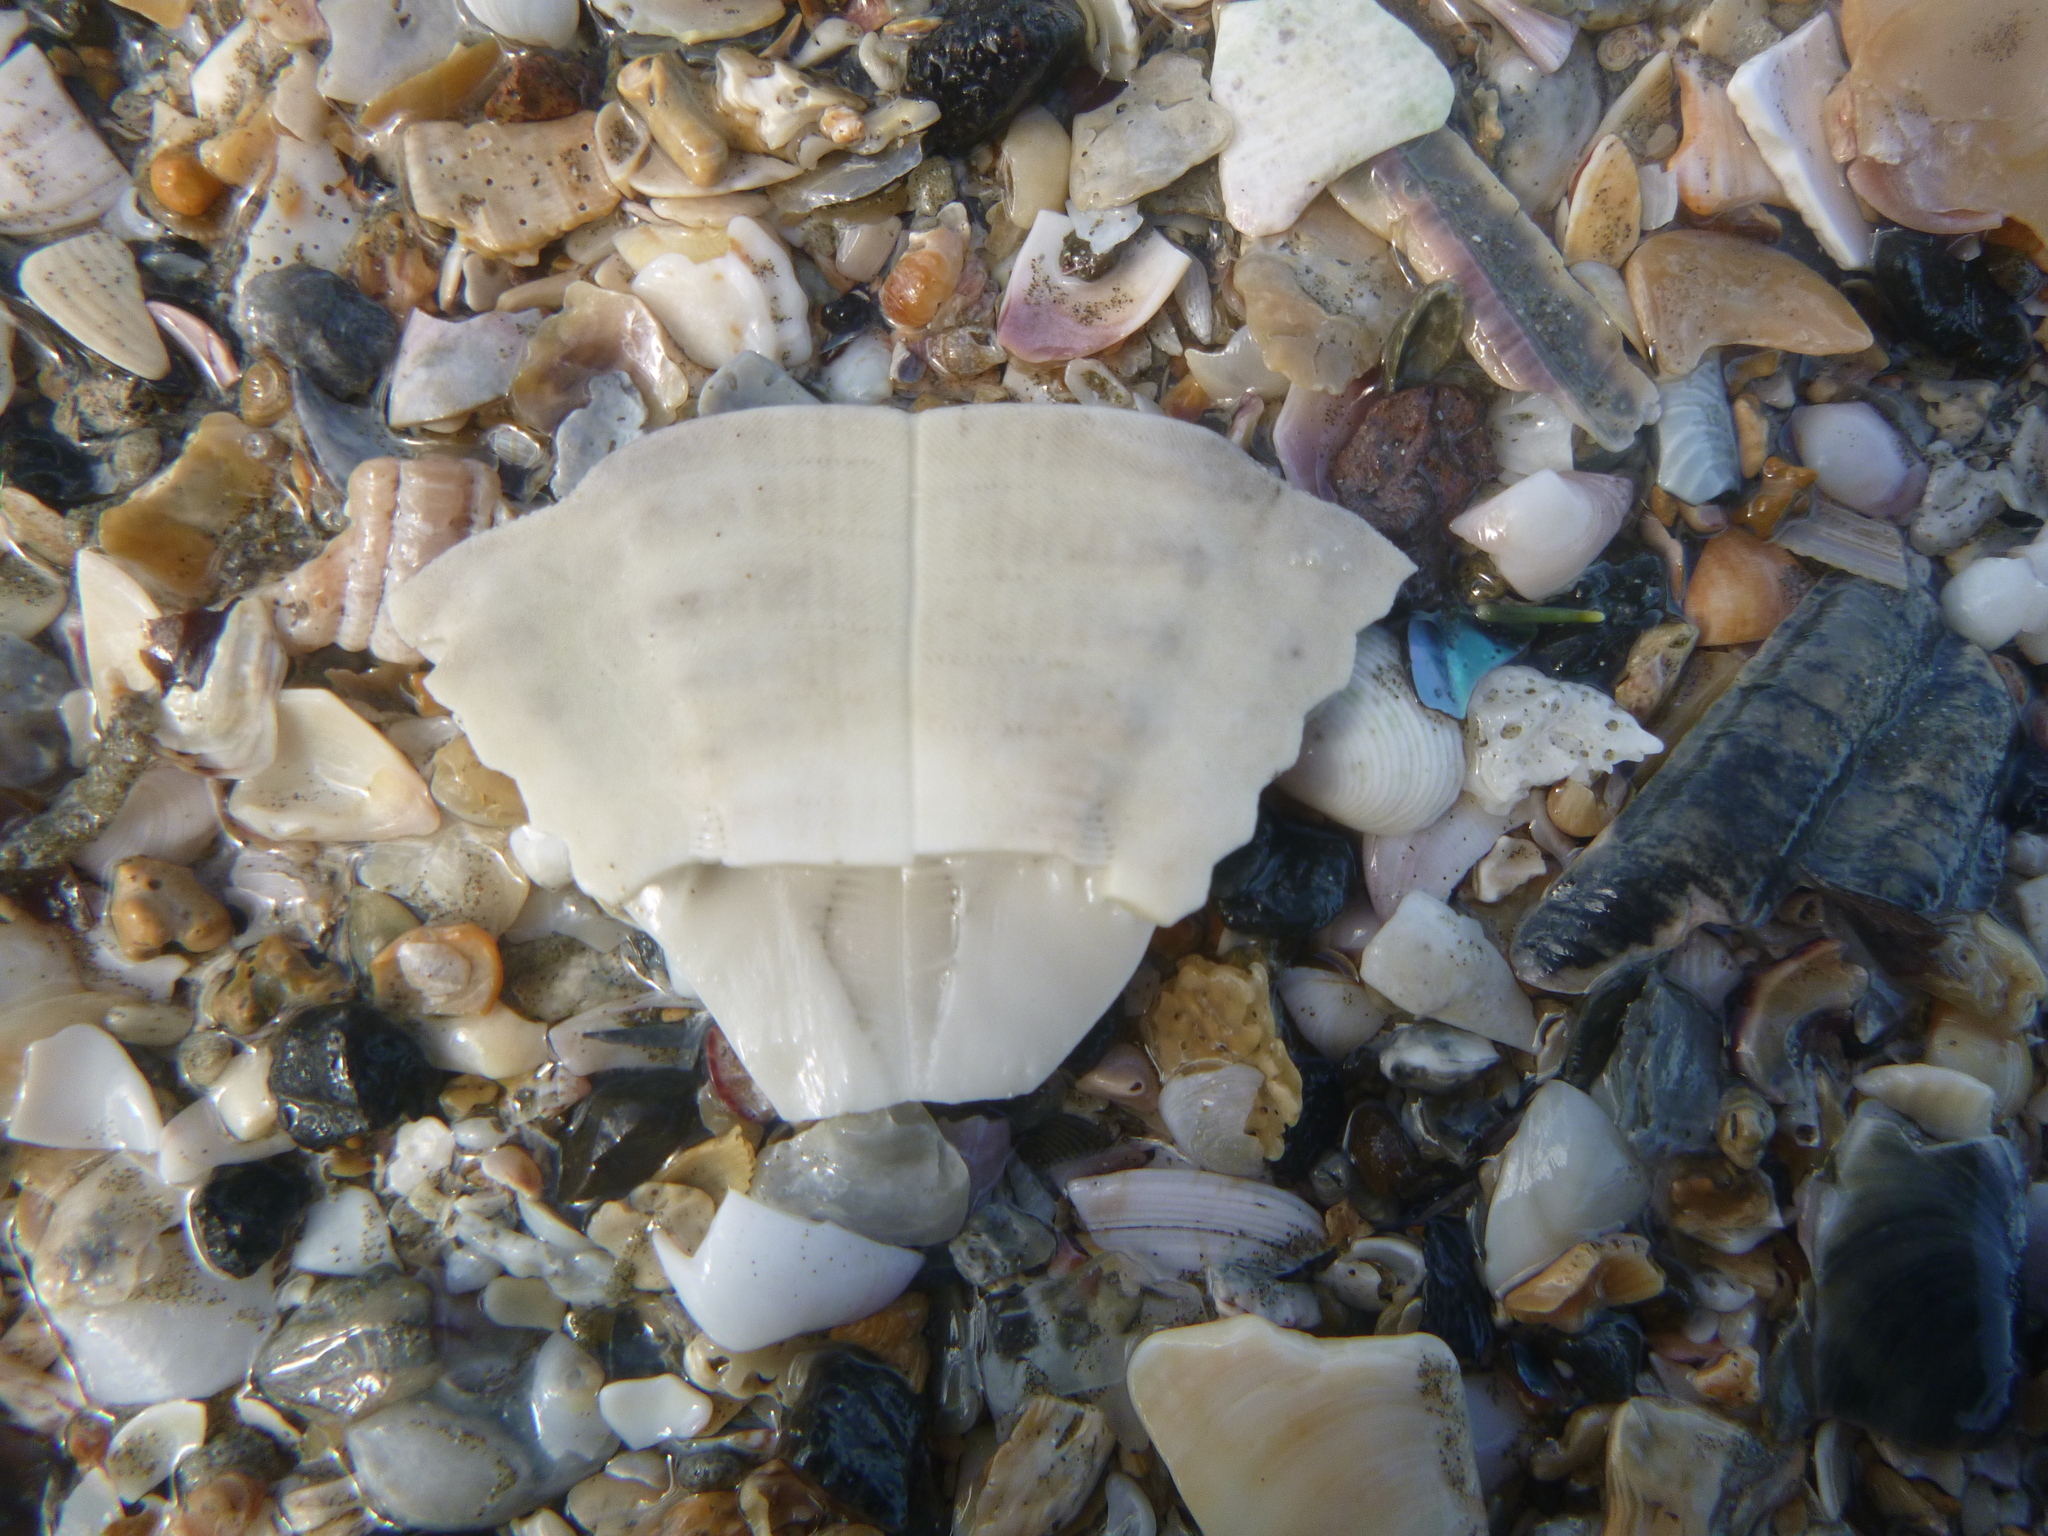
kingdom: Animalia
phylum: Echinodermata
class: Echinoidea
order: Clypeasteroida
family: Clypeasteridae
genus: Fellaster
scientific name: Fellaster zelandiae
